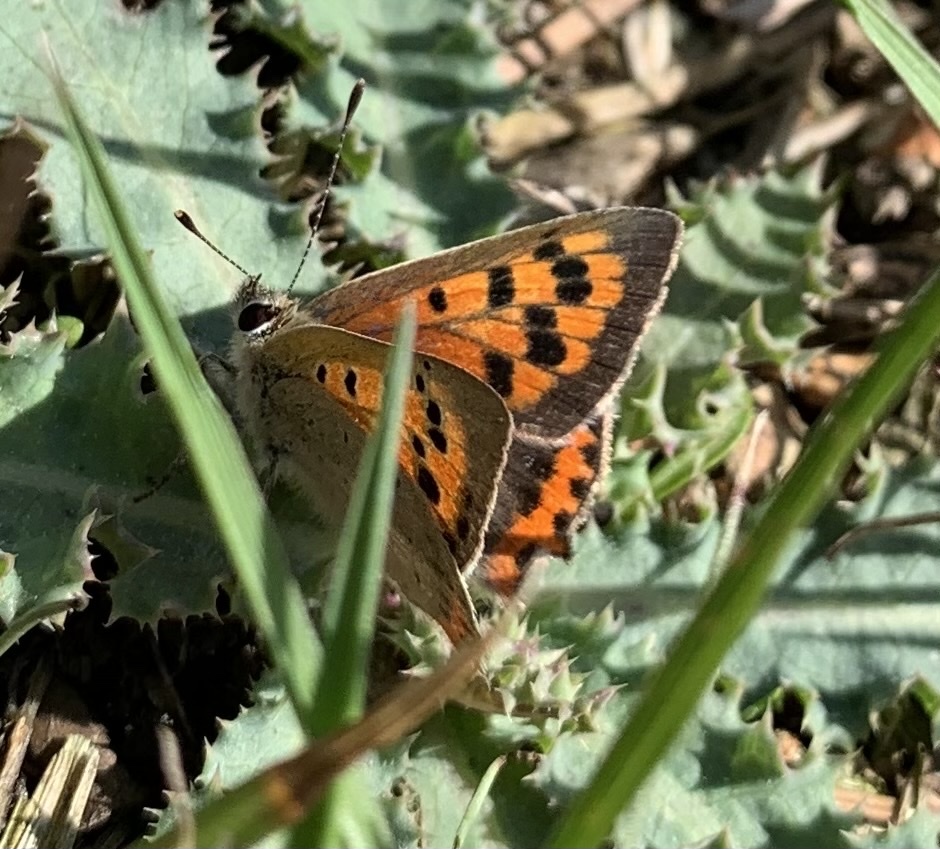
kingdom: Animalia
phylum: Arthropoda
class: Insecta
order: Lepidoptera
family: Lycaenidae
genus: Lycaena
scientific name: Lycaena phlaeas
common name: Small copper
